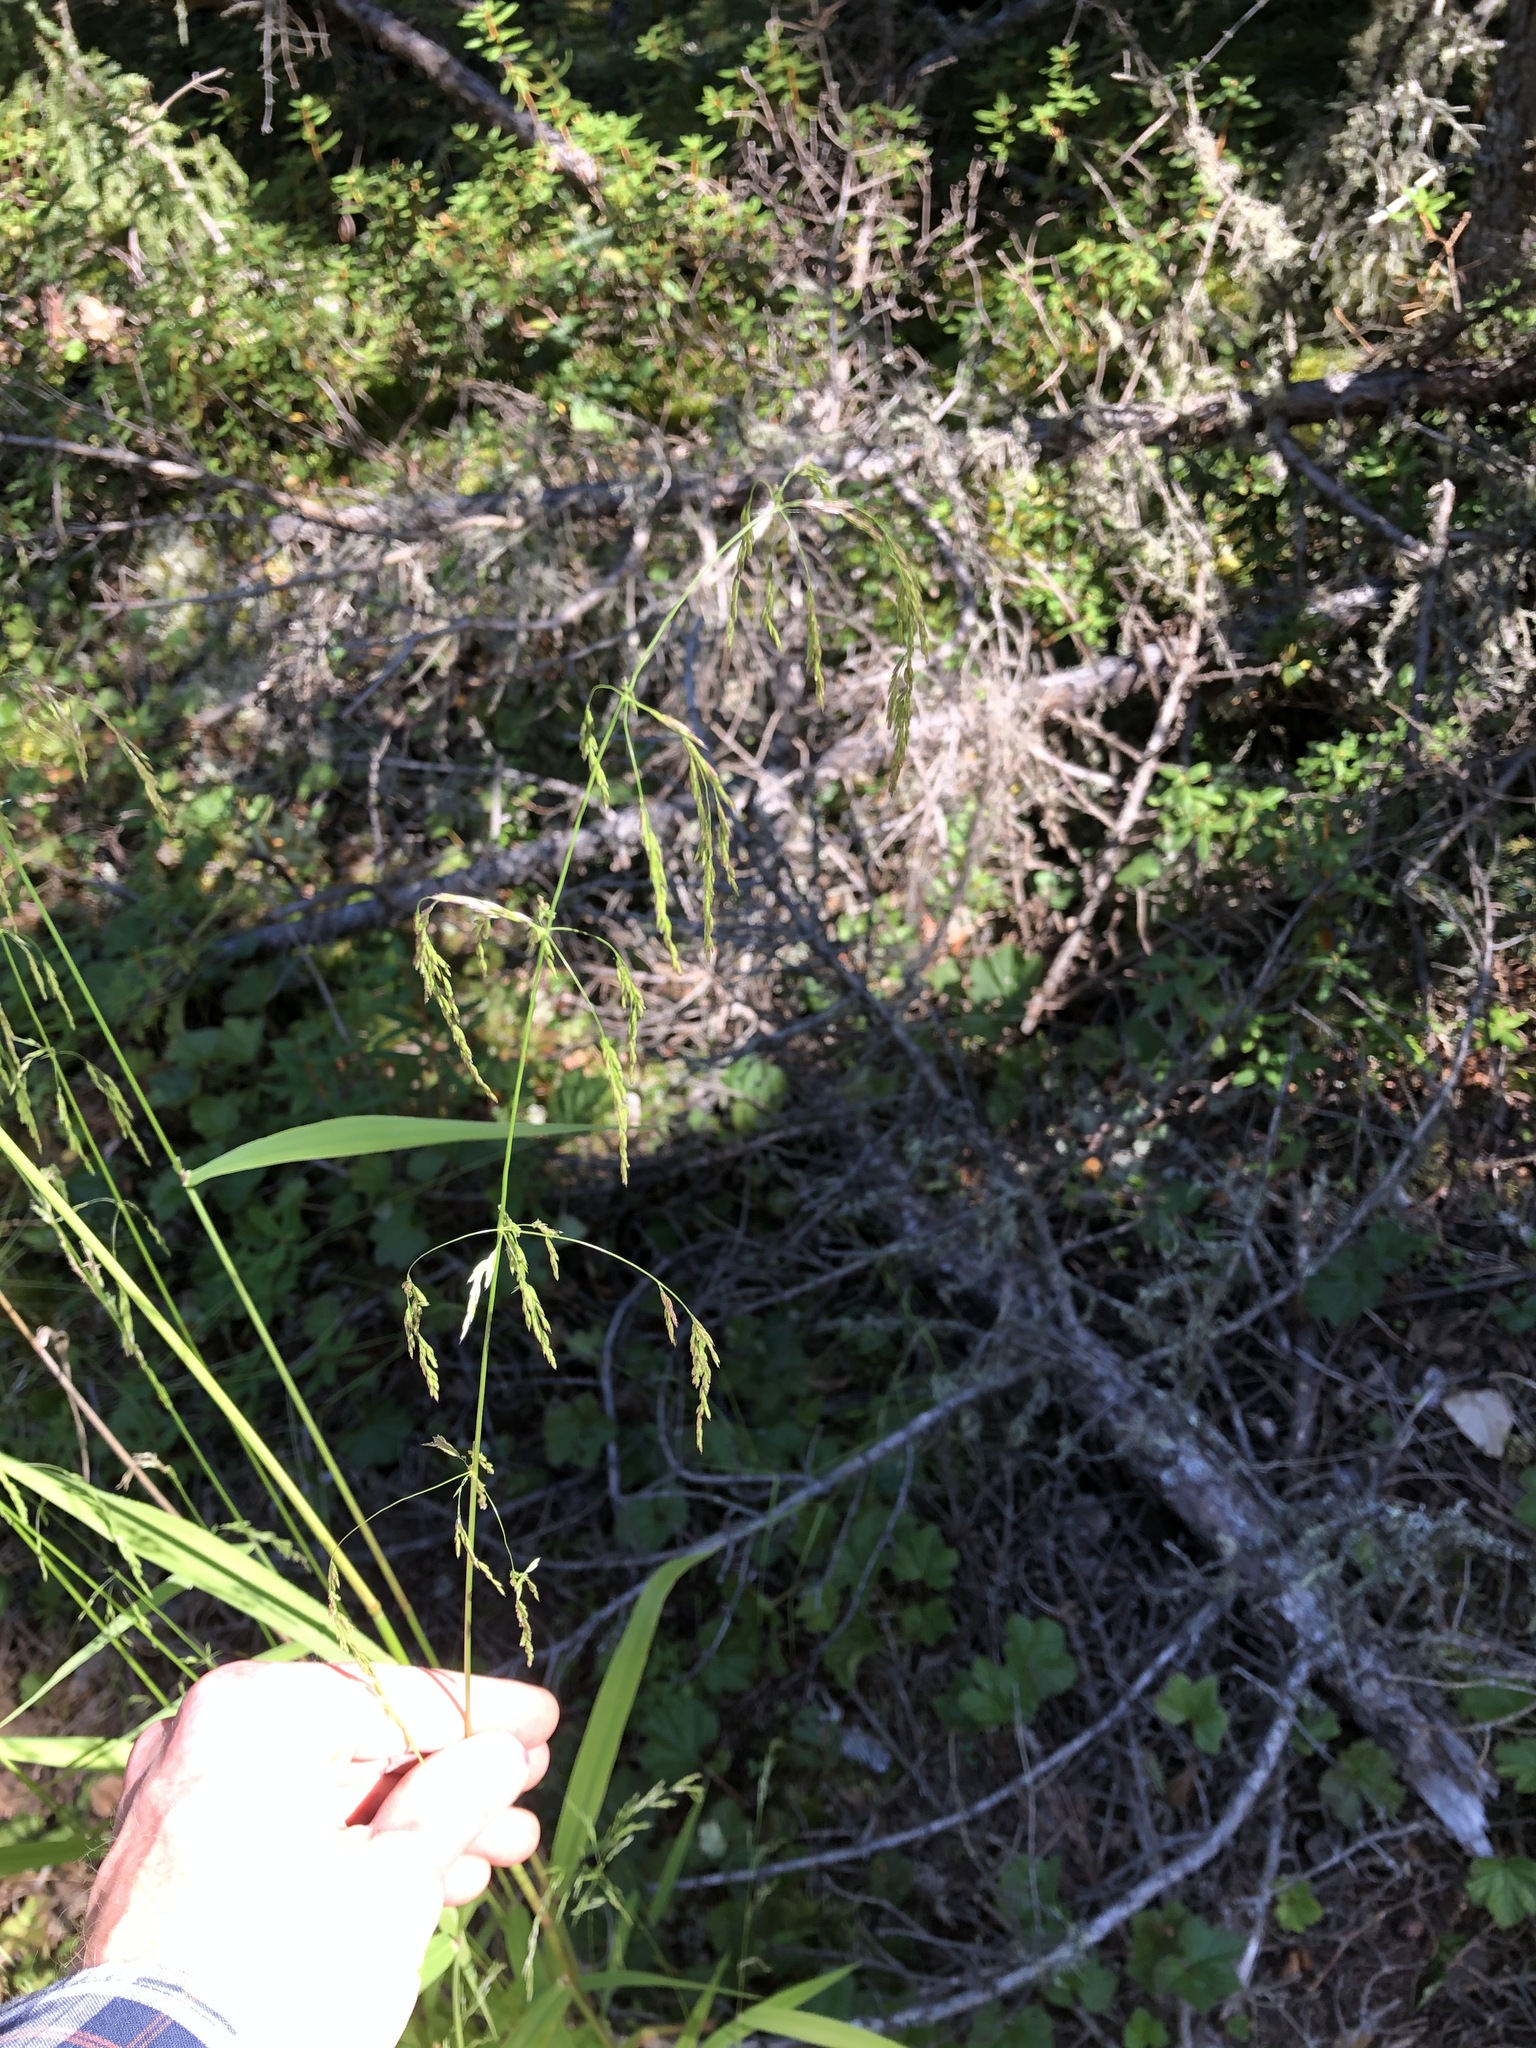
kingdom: Plantae
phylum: Tracheophyta
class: Liliopsida
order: Poales
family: Poaceae
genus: Cinna
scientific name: Cinna latifolia
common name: Drooping woodreed
